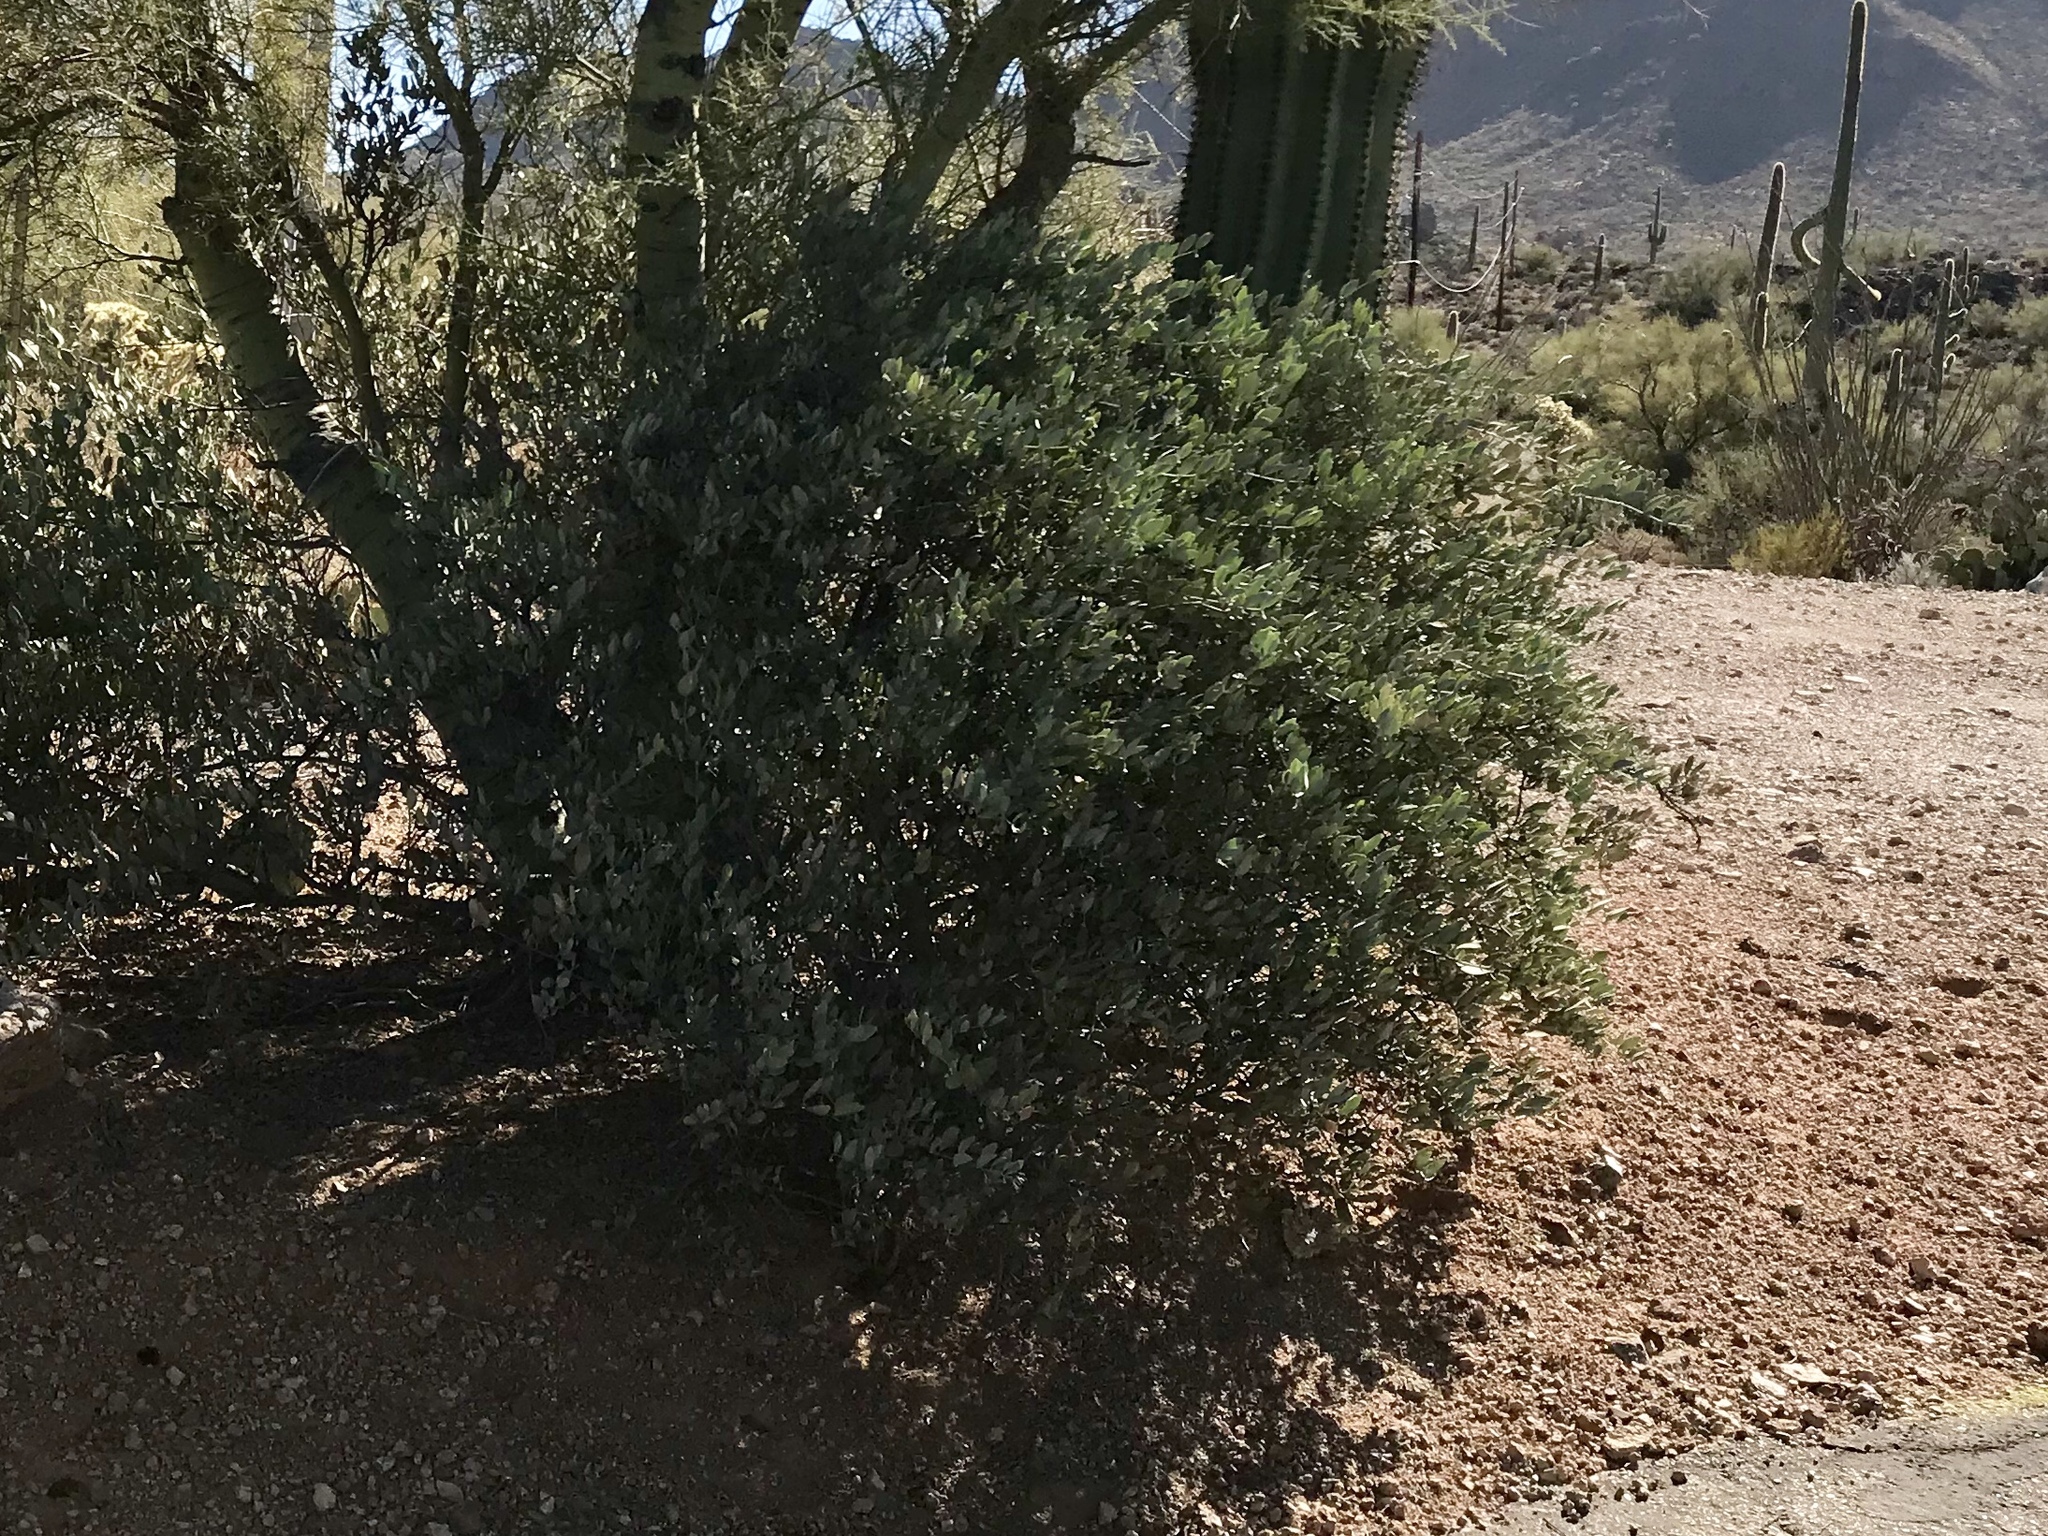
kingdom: Plantae
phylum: Tracheophyta
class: Magnoliopsida
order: Caryophyllales
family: Simmondsiaceae
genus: Simmondsia
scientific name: Simmondsia chinensis
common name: Jojoba
